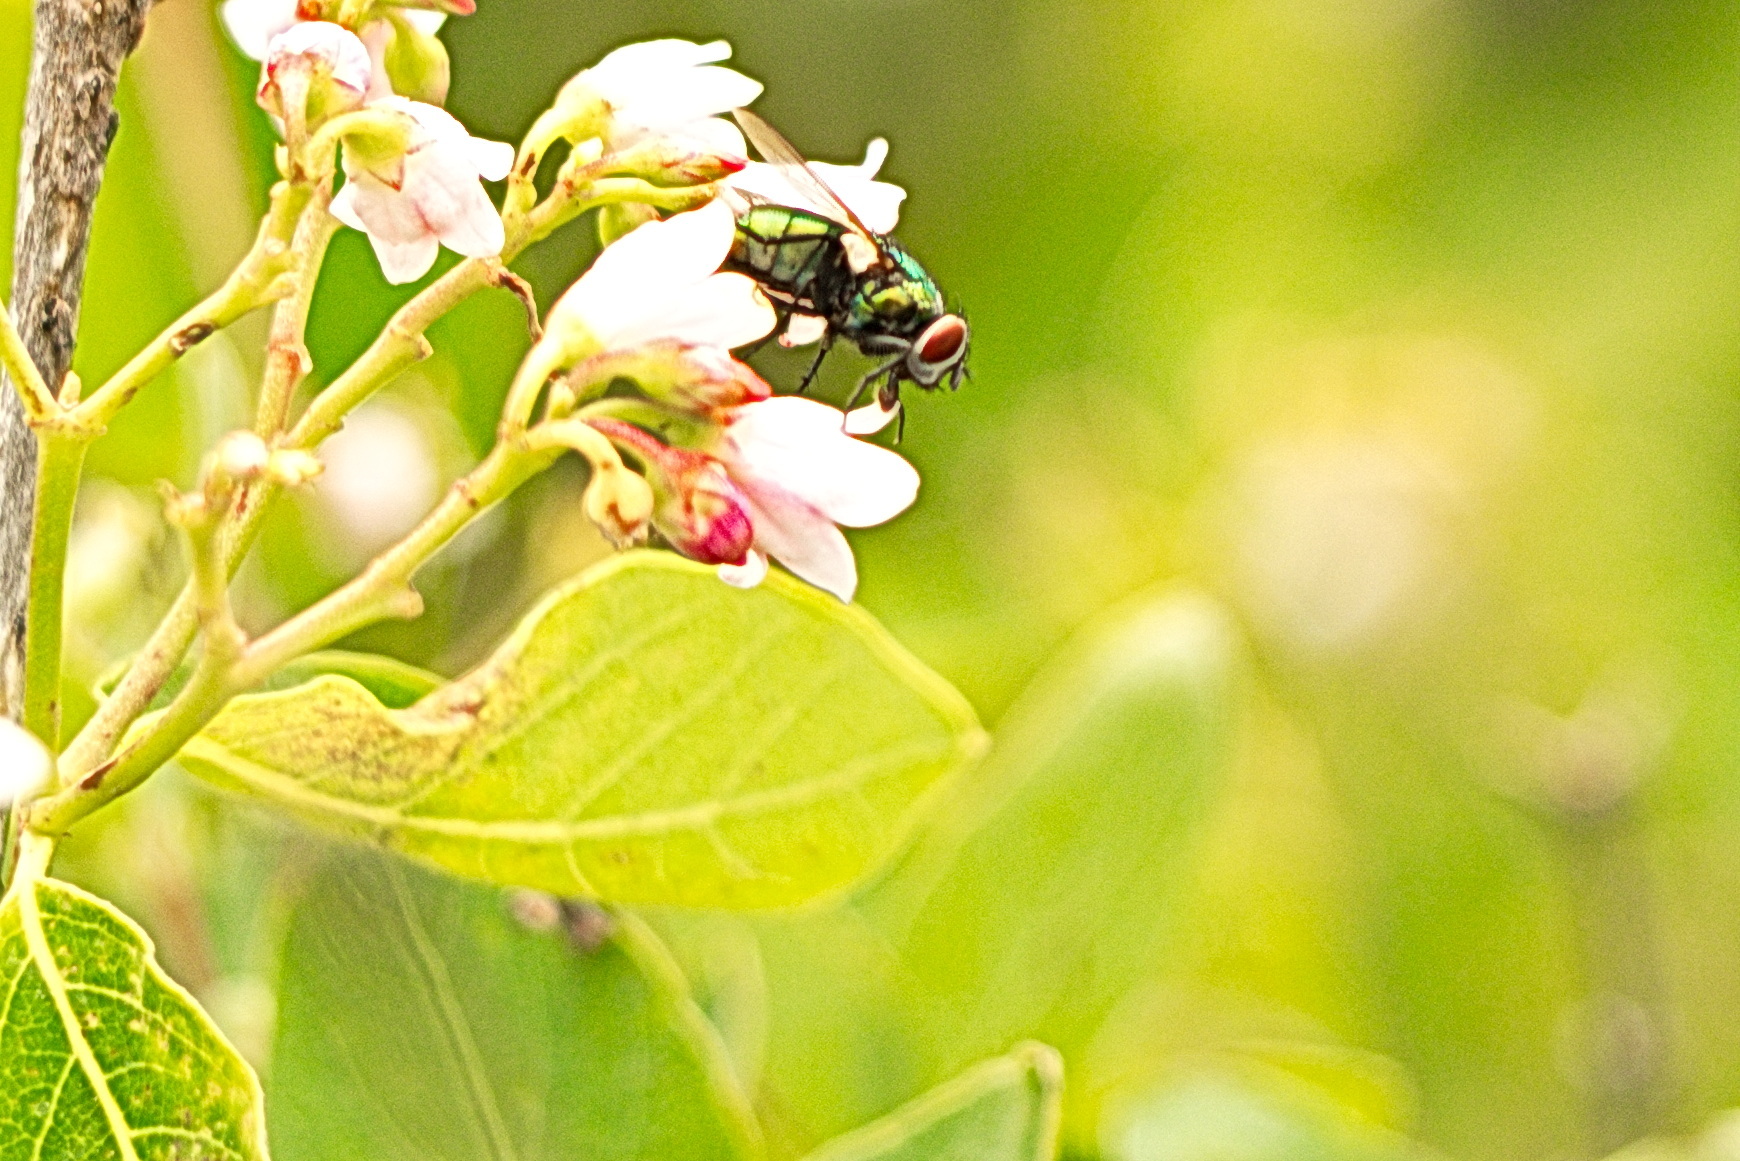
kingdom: Animalia
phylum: Arthropoda
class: Insecta
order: Diptera
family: Calliphoridae
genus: Lucilia
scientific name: Lucilia
